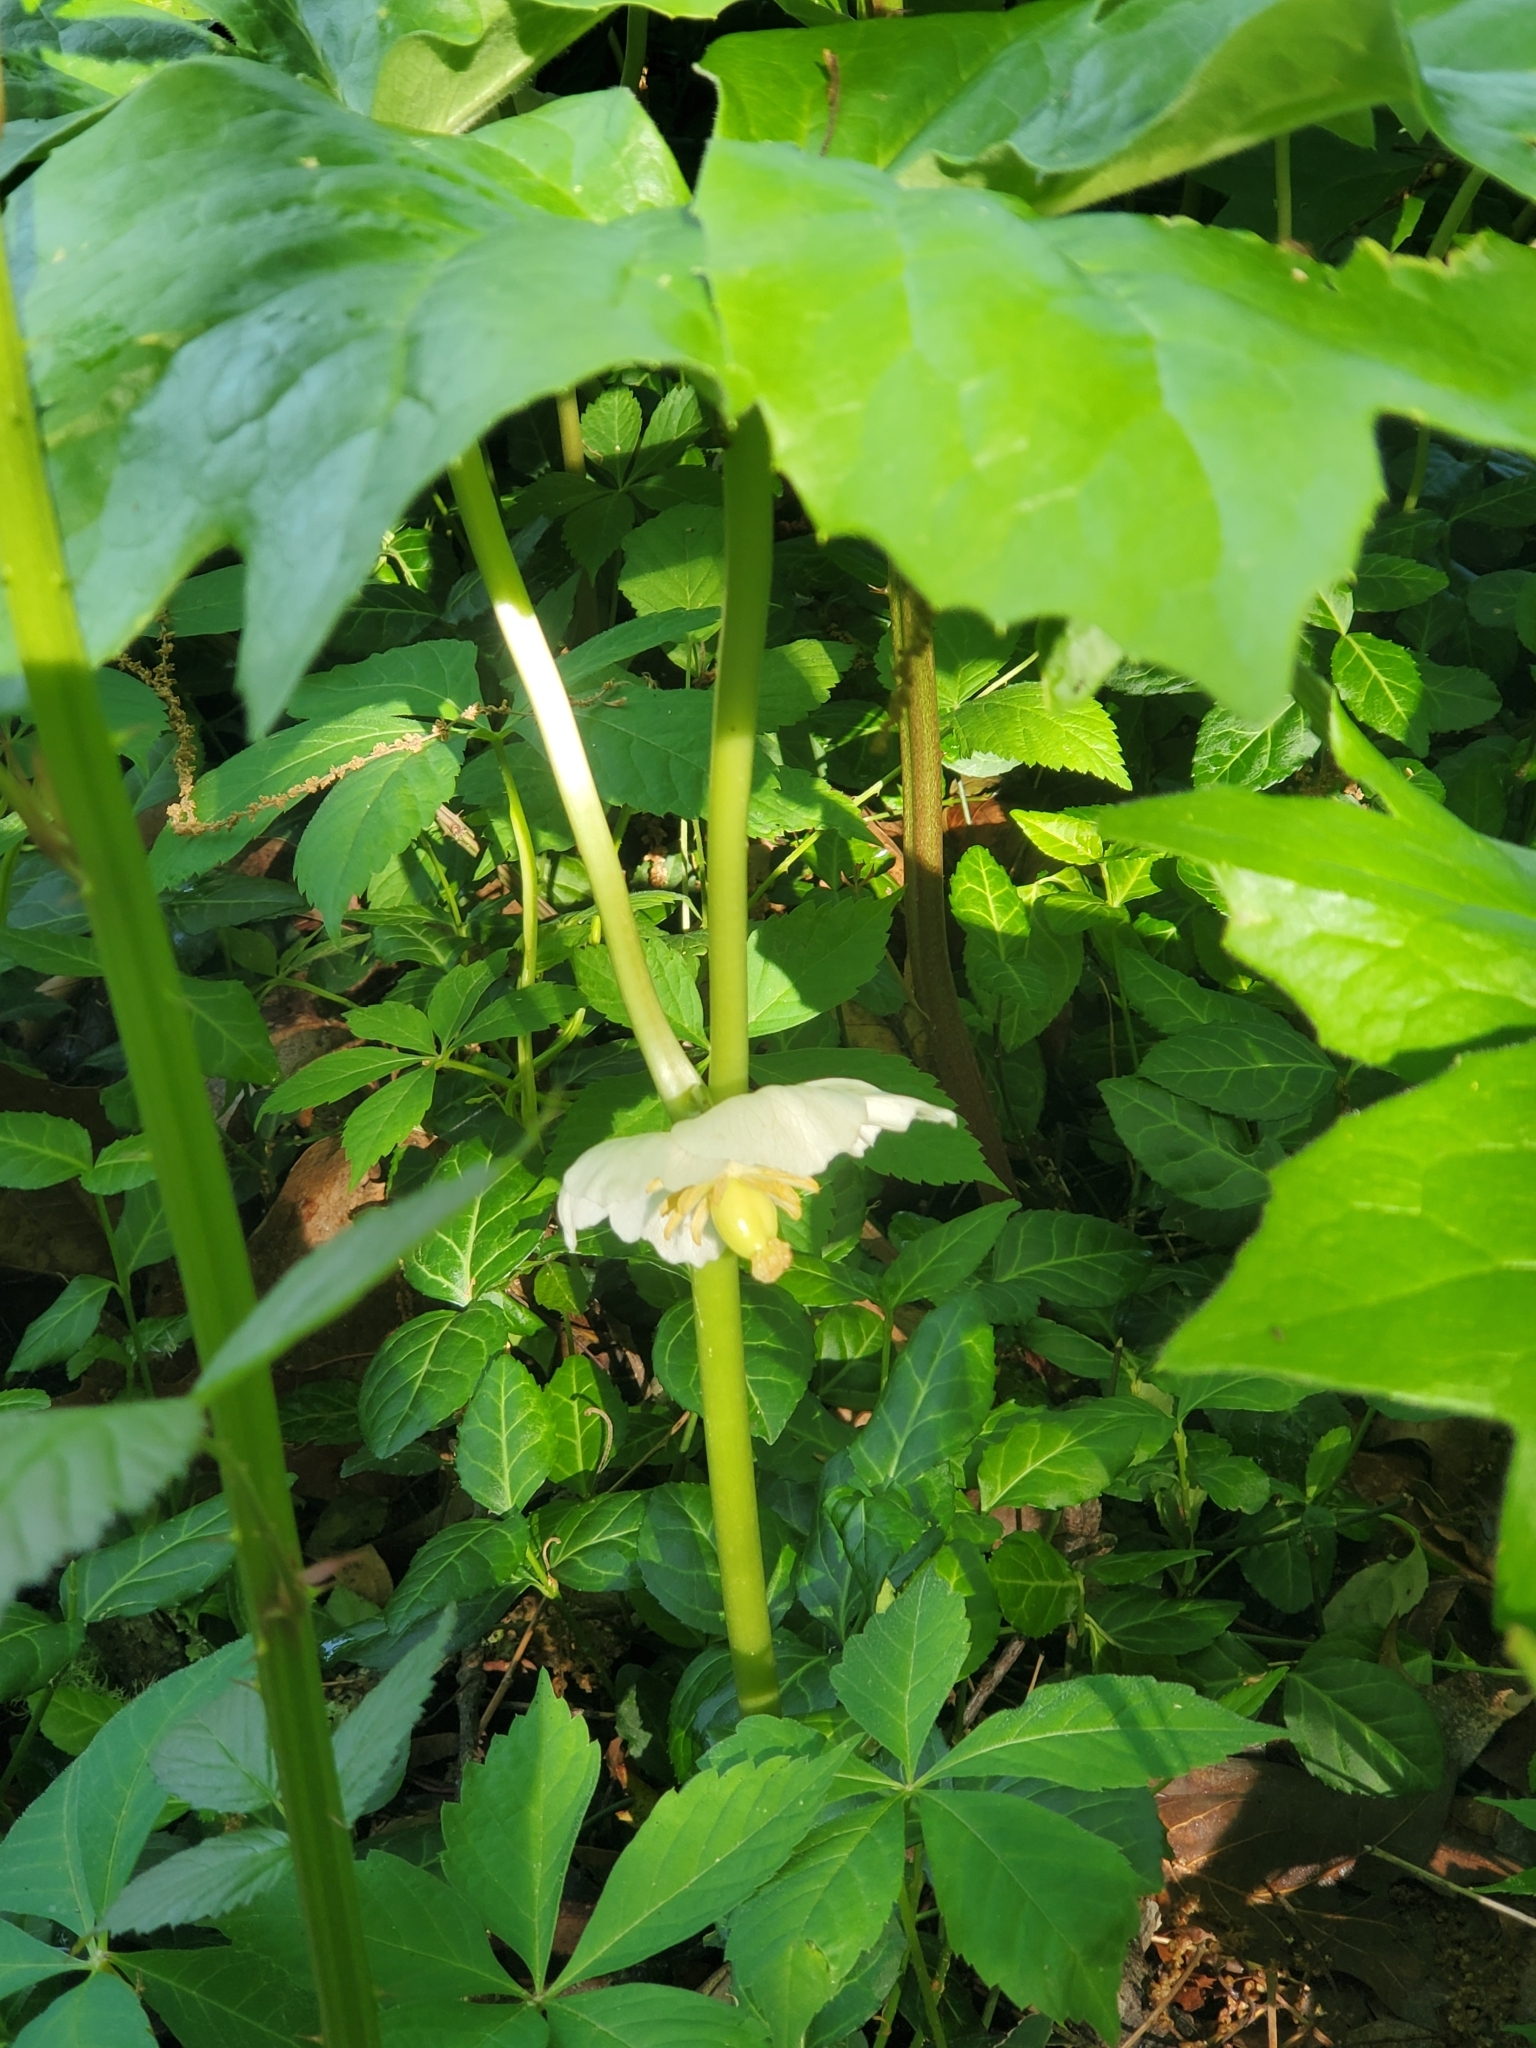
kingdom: Plantae
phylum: Tracheophyta
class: Magnoliopsida
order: Ranunculales
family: Berberidaceae
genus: Podophyllum
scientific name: Podophyllum peltatum
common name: Wild mandrake
